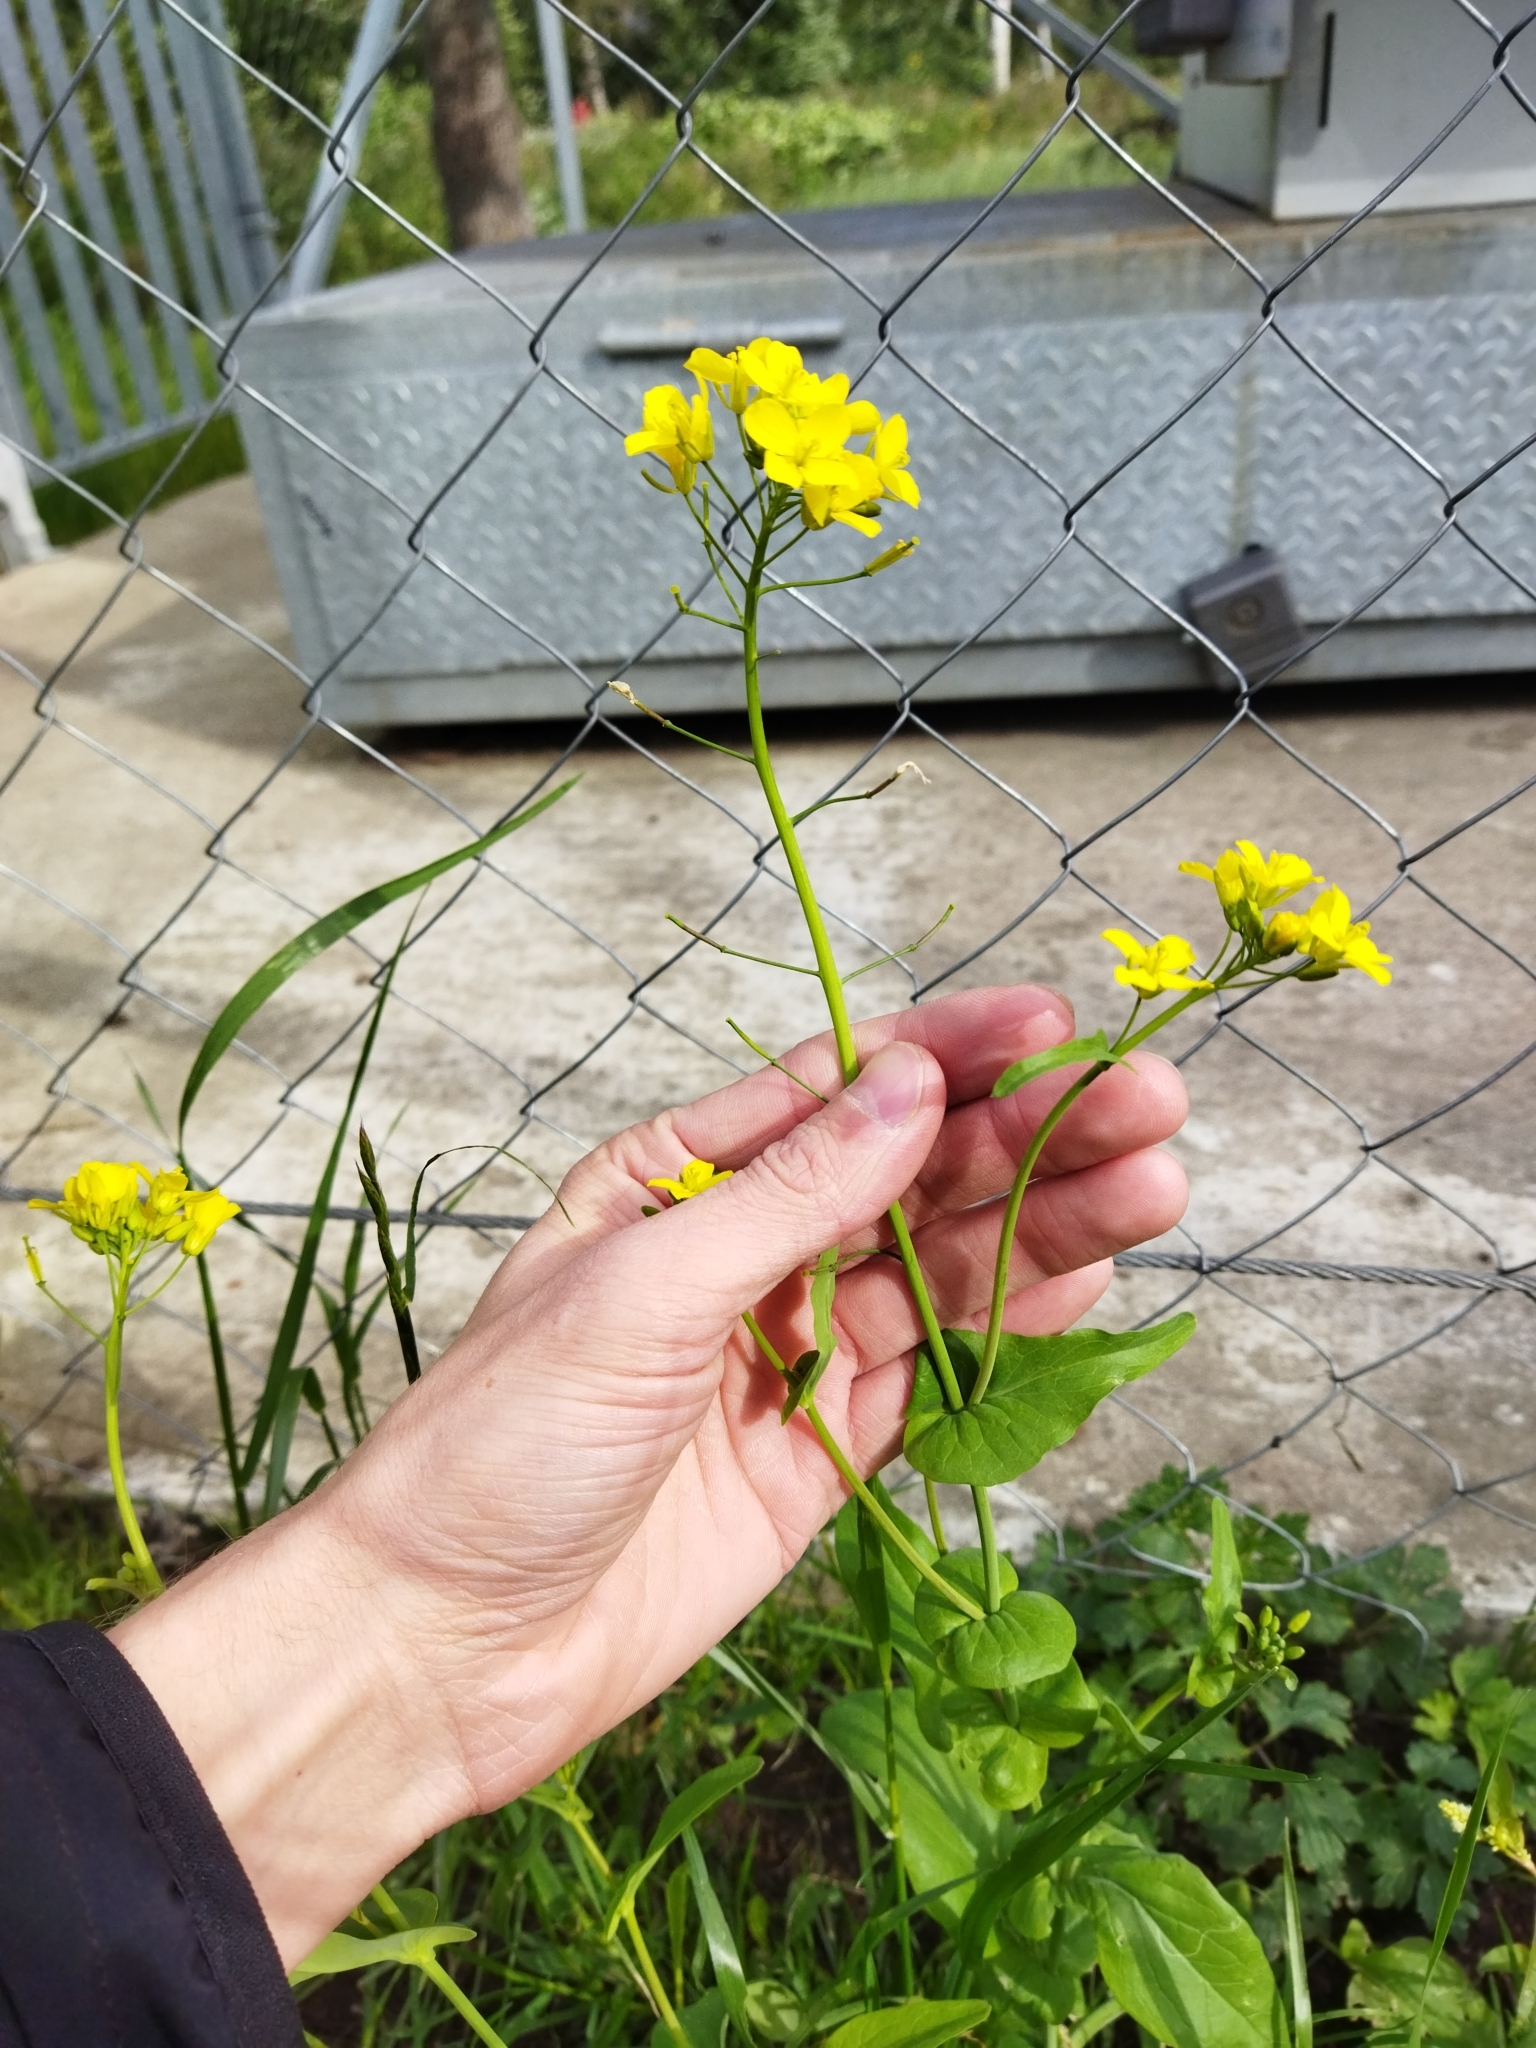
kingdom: Plantae
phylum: Tracheophyta
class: Magnoliopsida
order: Brassicales
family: Brassicaceae
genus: Brassica
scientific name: Brassica rapa
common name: Field mustard
